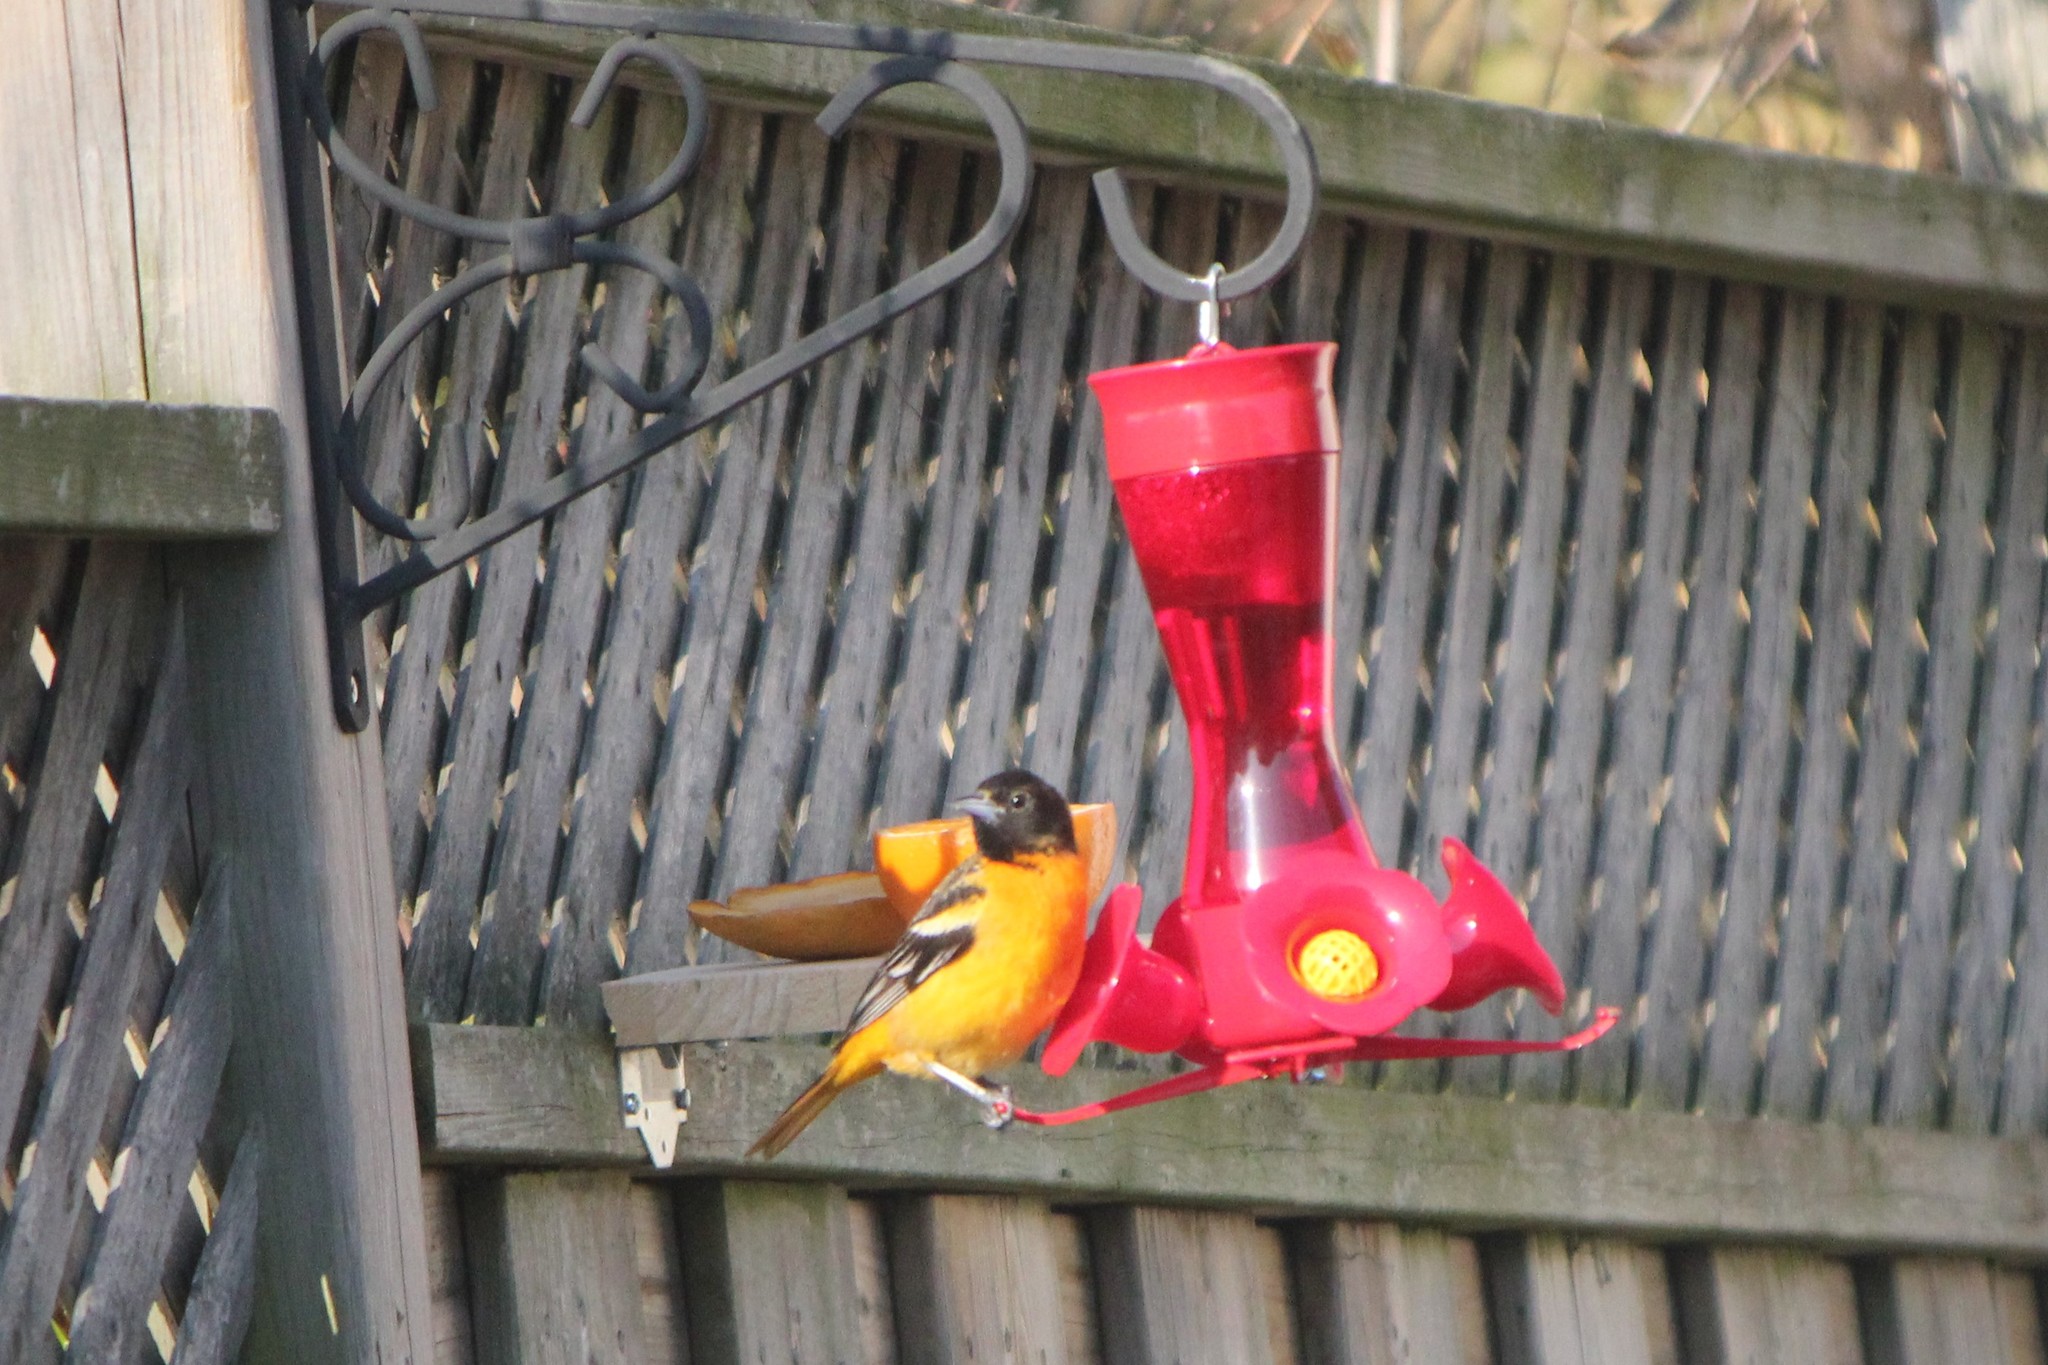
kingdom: Animalia
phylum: Chordata
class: Aves
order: Passeriformes
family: Icteridae
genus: Icterus
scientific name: Icterus galbula
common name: Baltimore oriole
